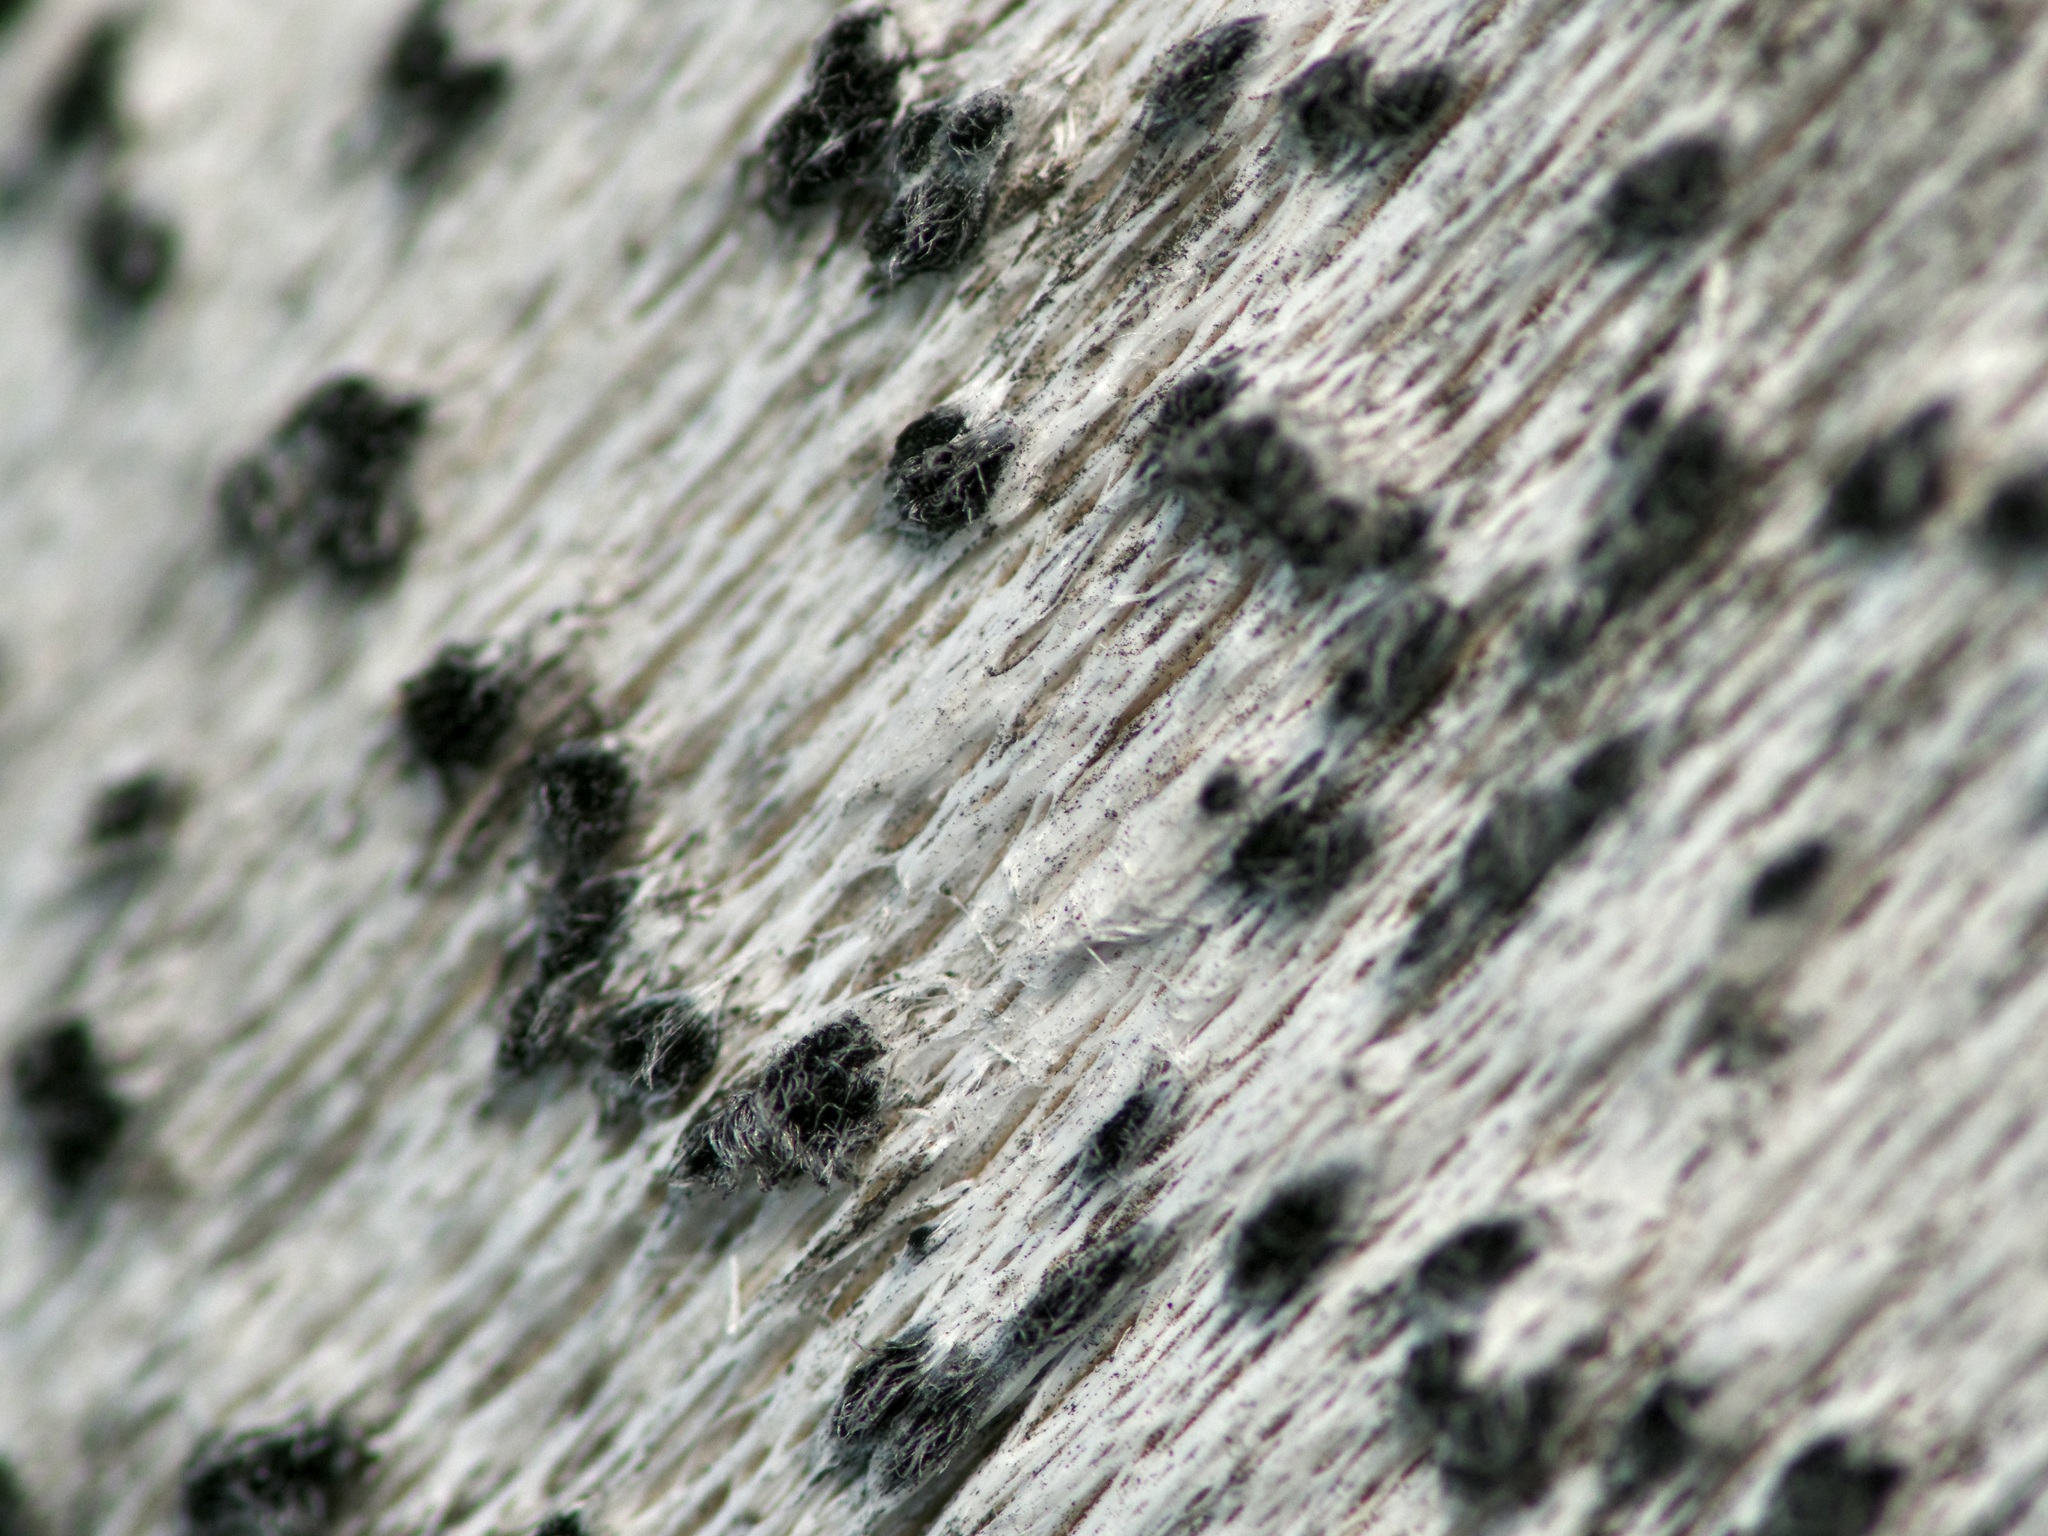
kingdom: Fungi
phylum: Ascomycota
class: Lecanoromycetes
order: Ostropales
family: Stictidaceae
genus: Robergea
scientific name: Robergea
